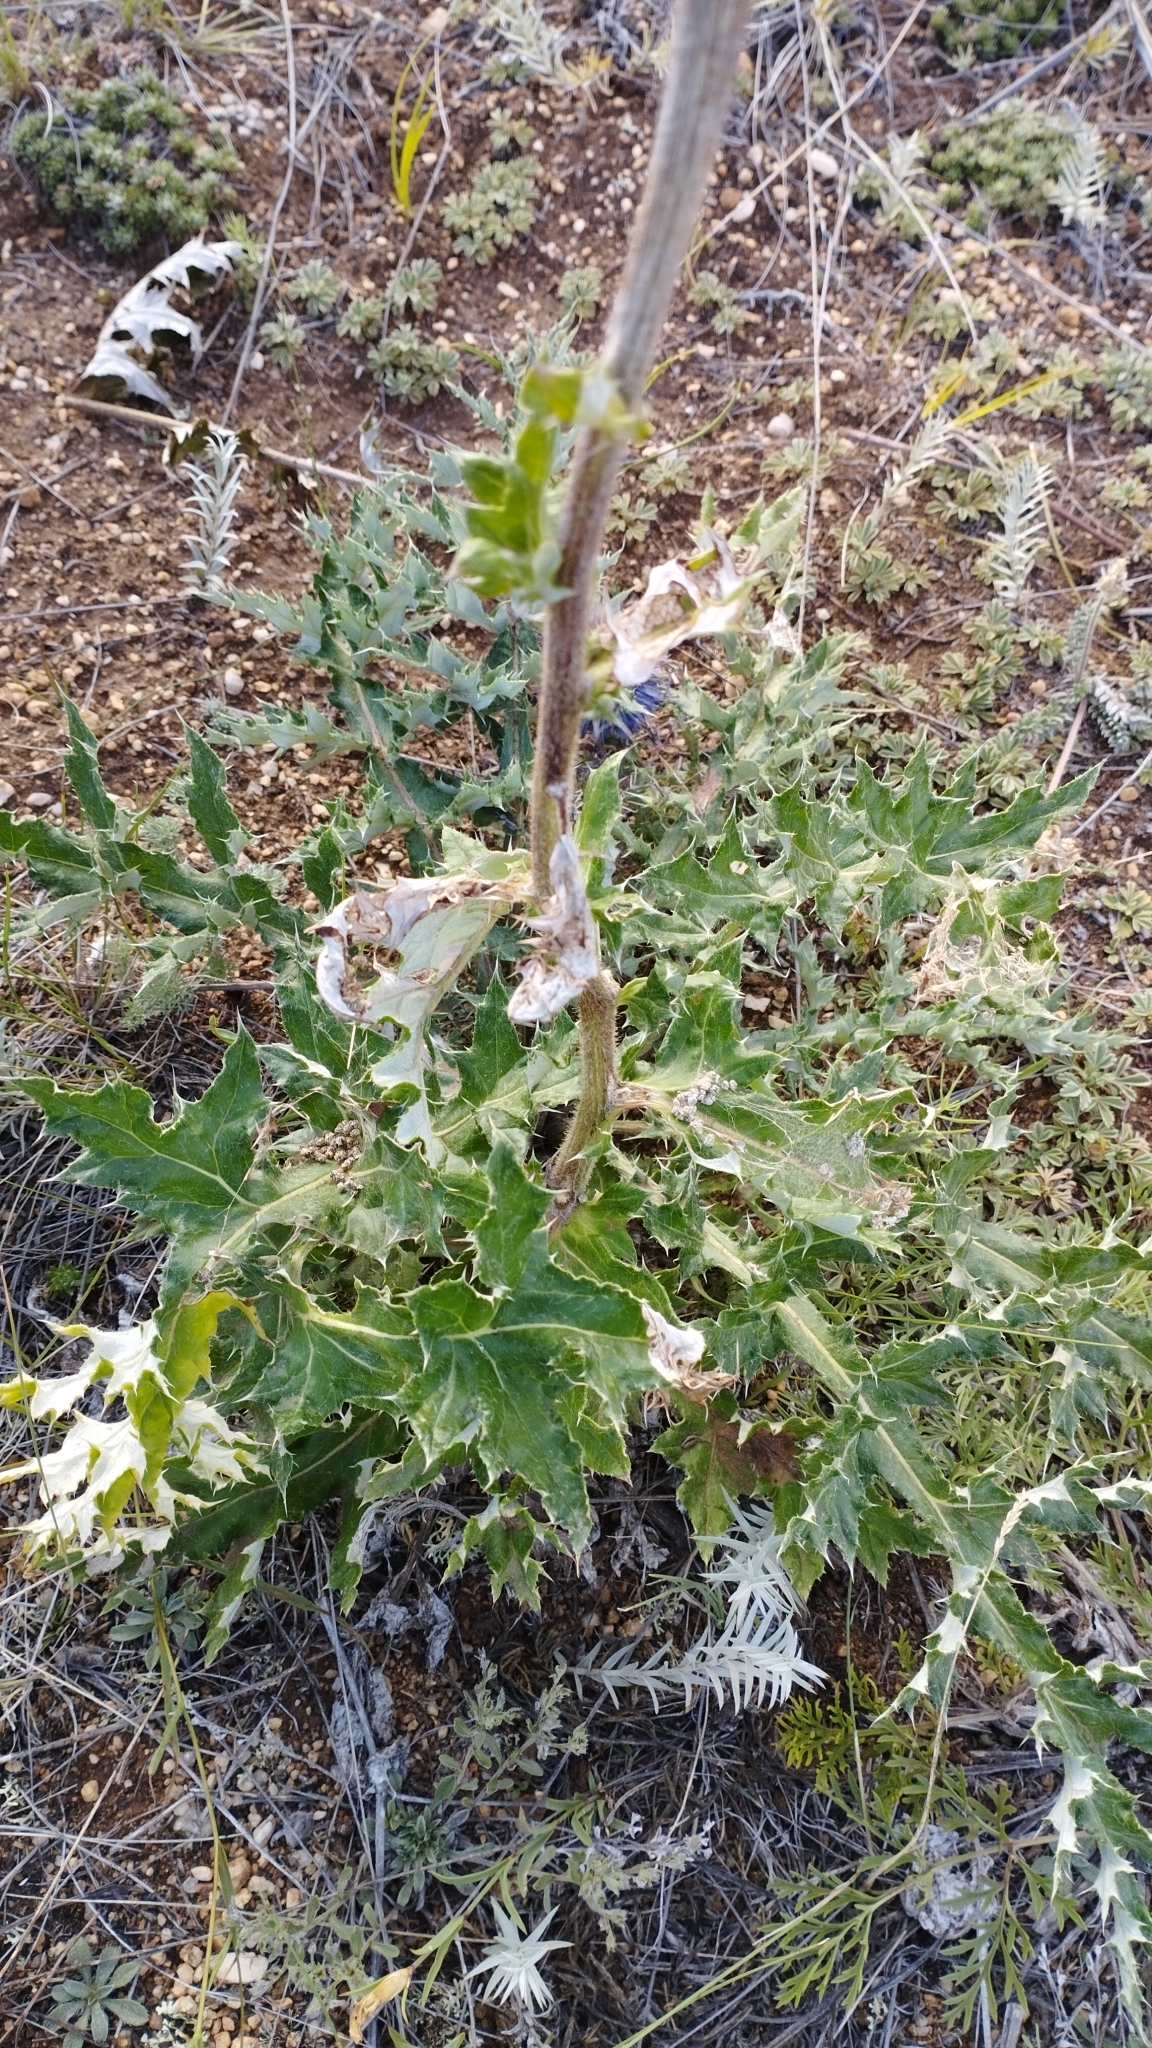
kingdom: Plantae
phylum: Tracheophyta
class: Magnoliopsida
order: Asterales
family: Asteraceae
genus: Echinops
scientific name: Echinops davuricus
